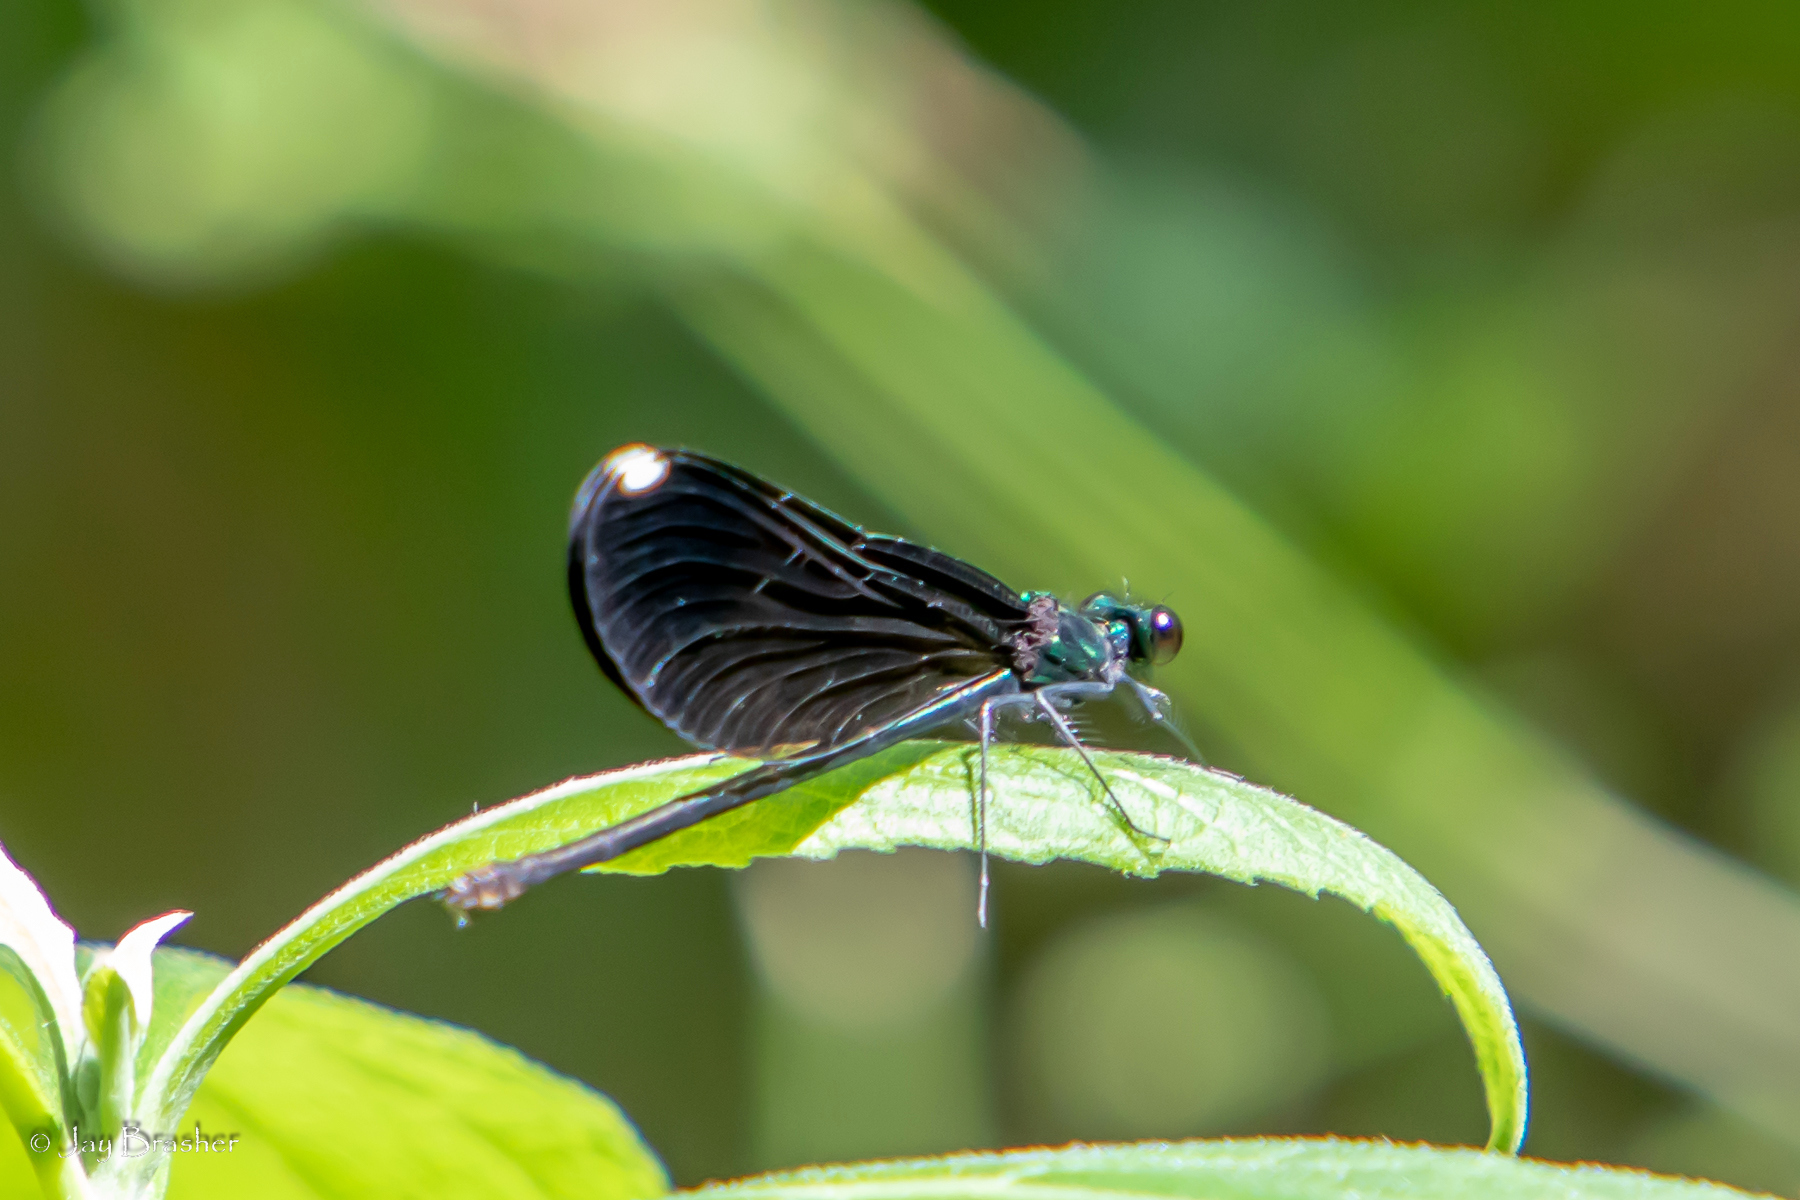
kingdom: Animalia
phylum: Arthropoda
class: Insecta
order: Odonata
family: Calopterygidae
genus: Calopteryx
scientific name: Calopteryx maculata
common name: Ebony jewelwing
